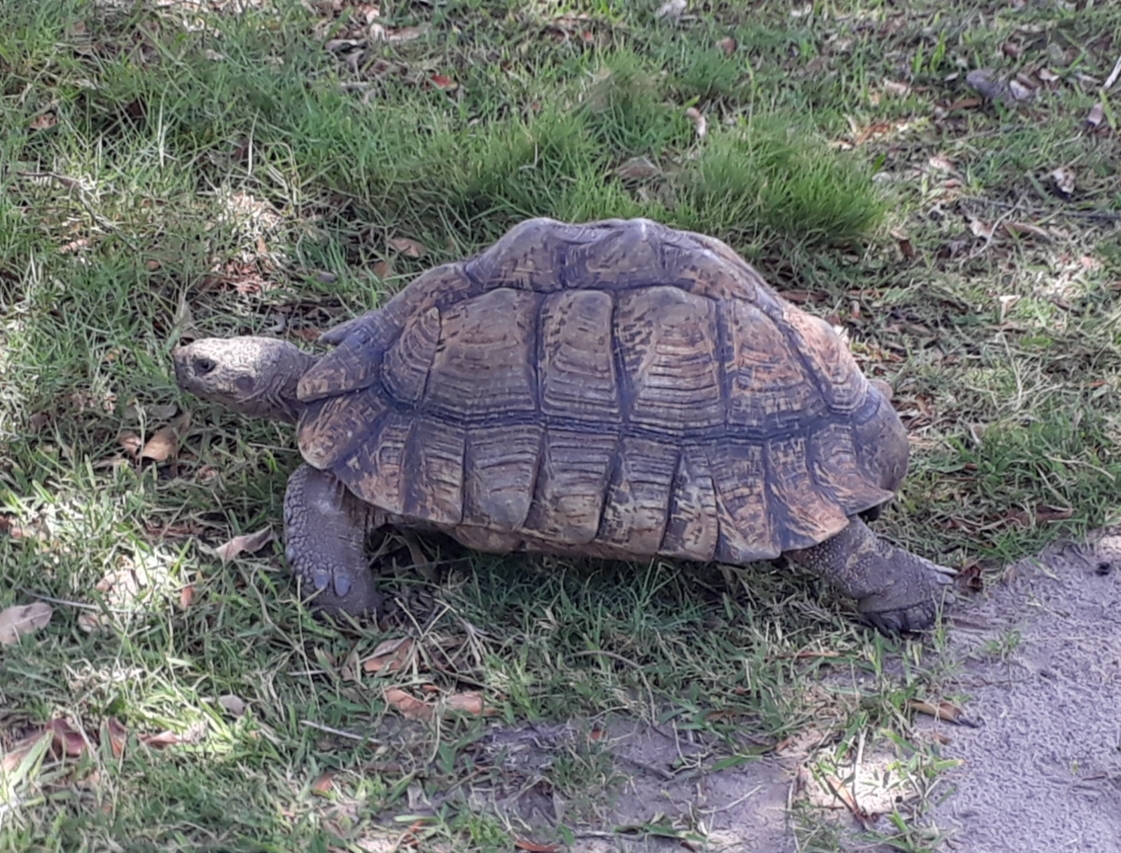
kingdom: Animalia
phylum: Chordata
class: Testudines
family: Testudinidae
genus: Stigmochelys
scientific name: Stigmochelys pardalis
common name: Leopard tortoise
